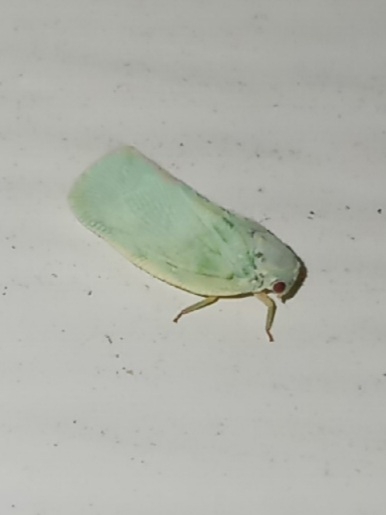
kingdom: Animalia
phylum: Arthropoda
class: Insecta
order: Hemiptera
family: Flatidae
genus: Flatormenis
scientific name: Flatormenis proxima
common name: Northern flatid planthopper
